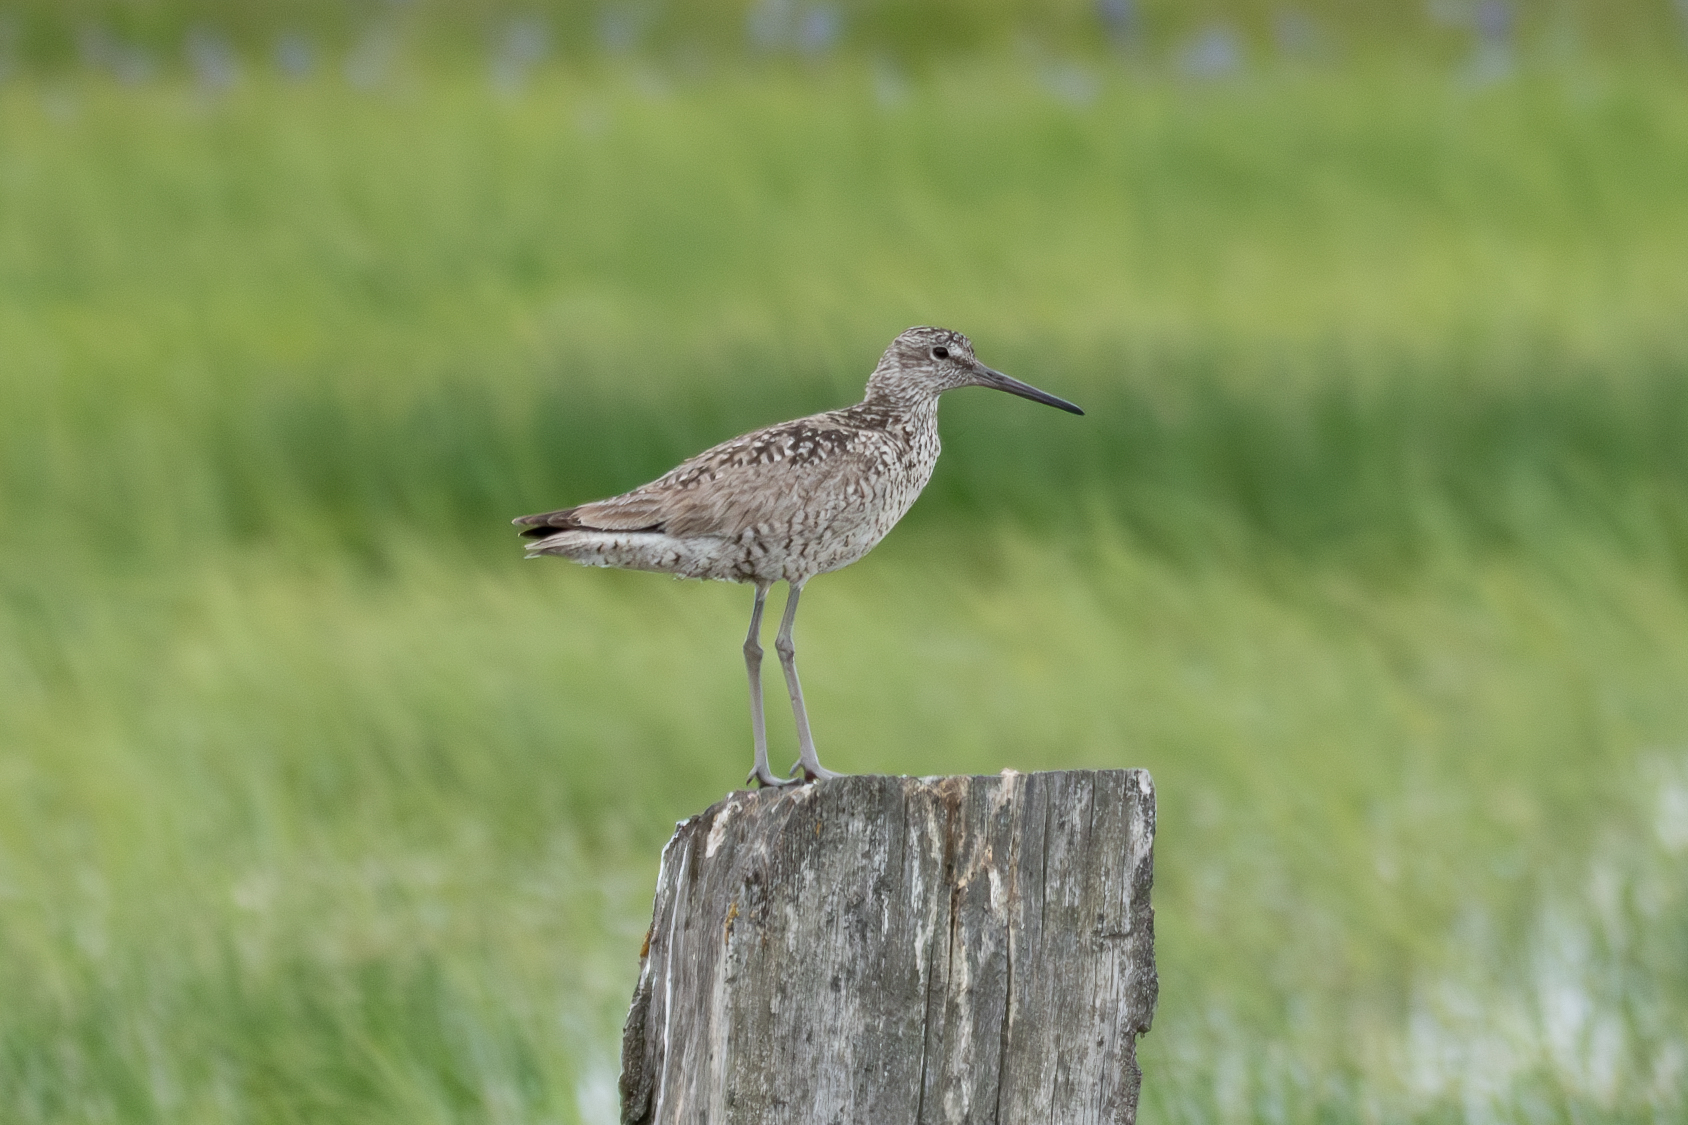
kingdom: Animalia
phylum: Chordata
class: Aves
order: Charadriiformes
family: Scolopacidae
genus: Tringa
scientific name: Tringa semipalmata
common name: Willet
